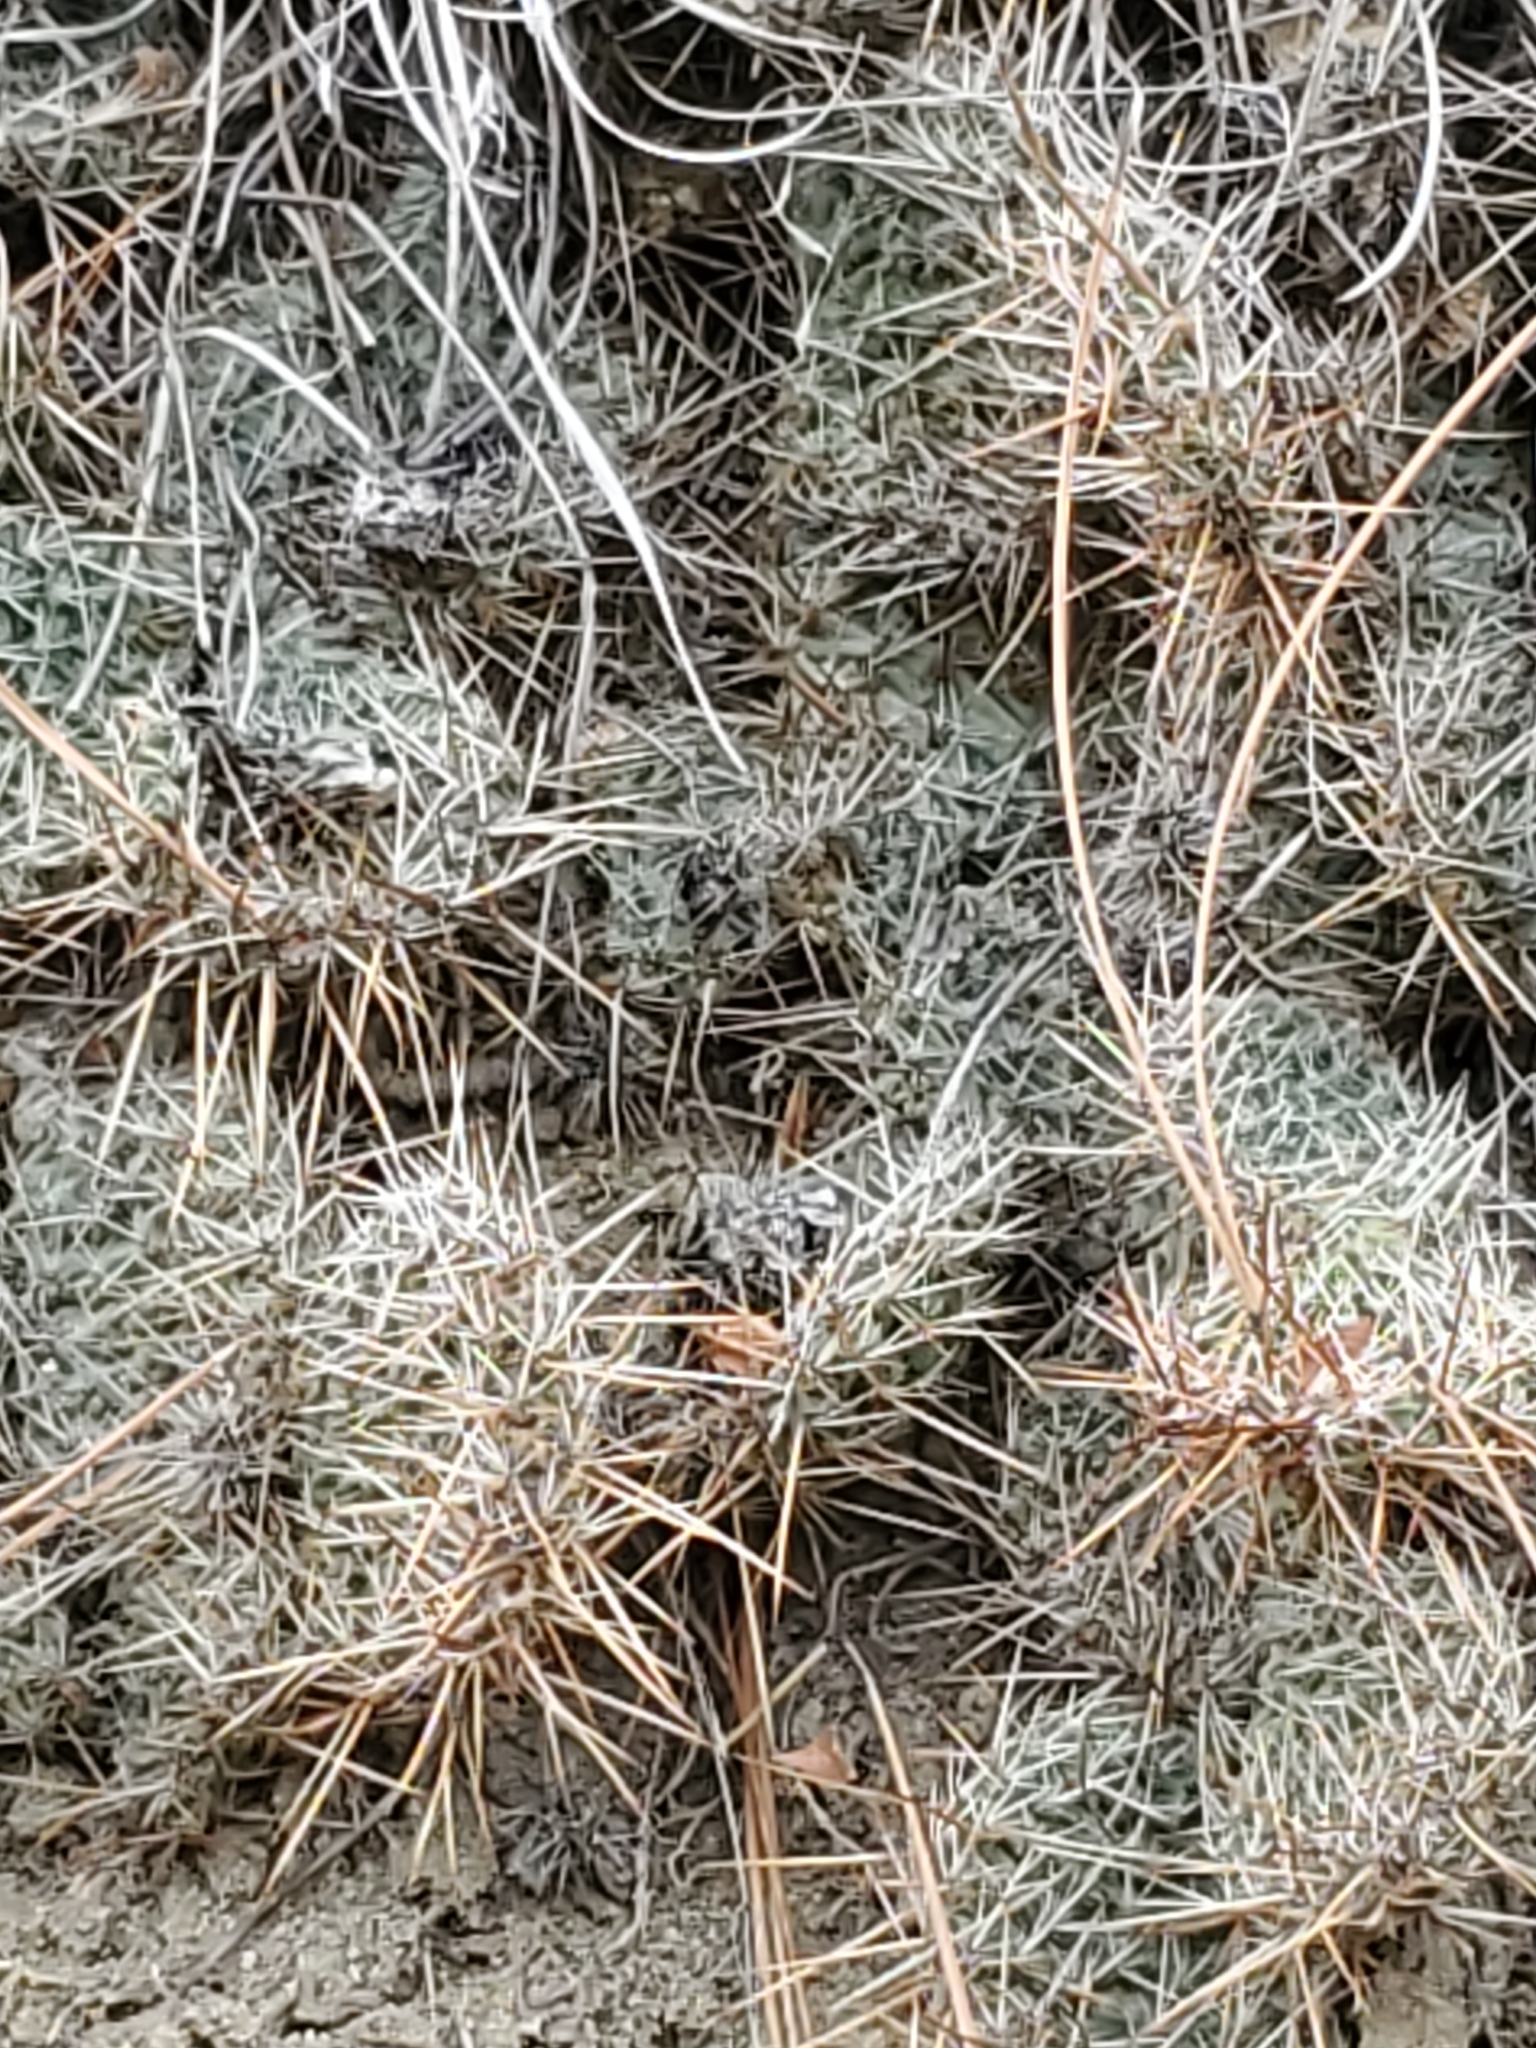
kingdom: Plantae
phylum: Tracheophyta
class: Magnoliopsida
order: Caryophyllales
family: Cactaceae
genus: Opuntia
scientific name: Opuntia polyacantha
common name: Plains prickly-pear
